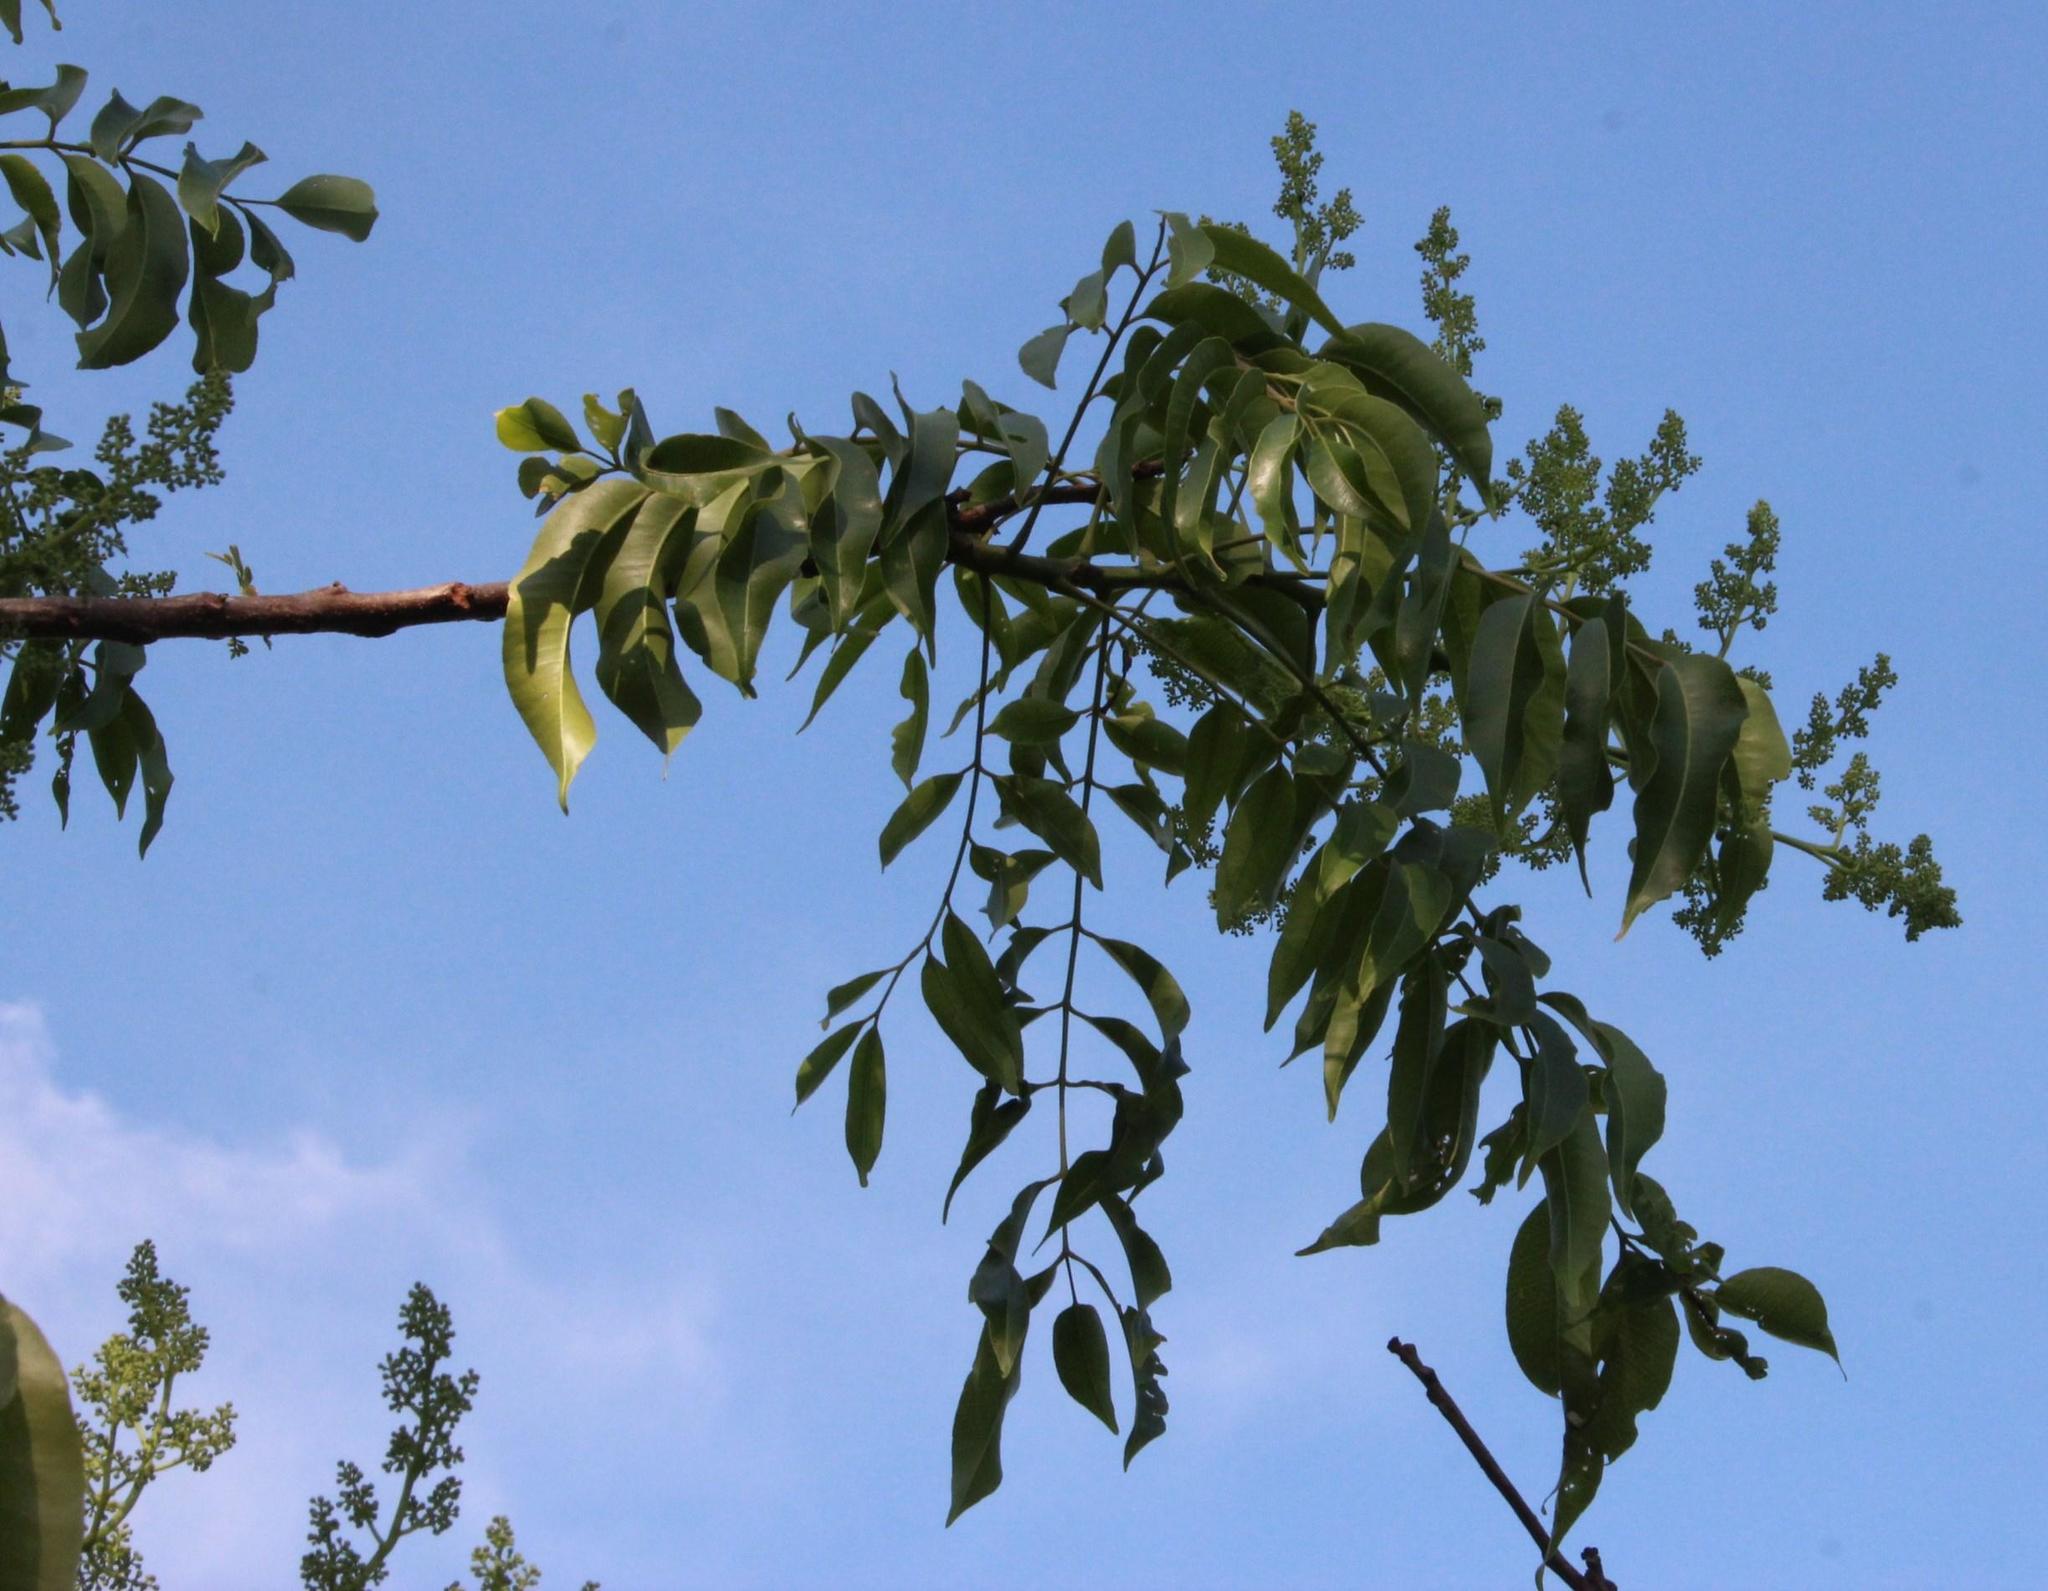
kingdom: Plantae
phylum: Tracheophyta
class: Magnoliopsida
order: Sapindales
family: Anacardiaceae
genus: Spondias
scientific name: Spondias mombin
